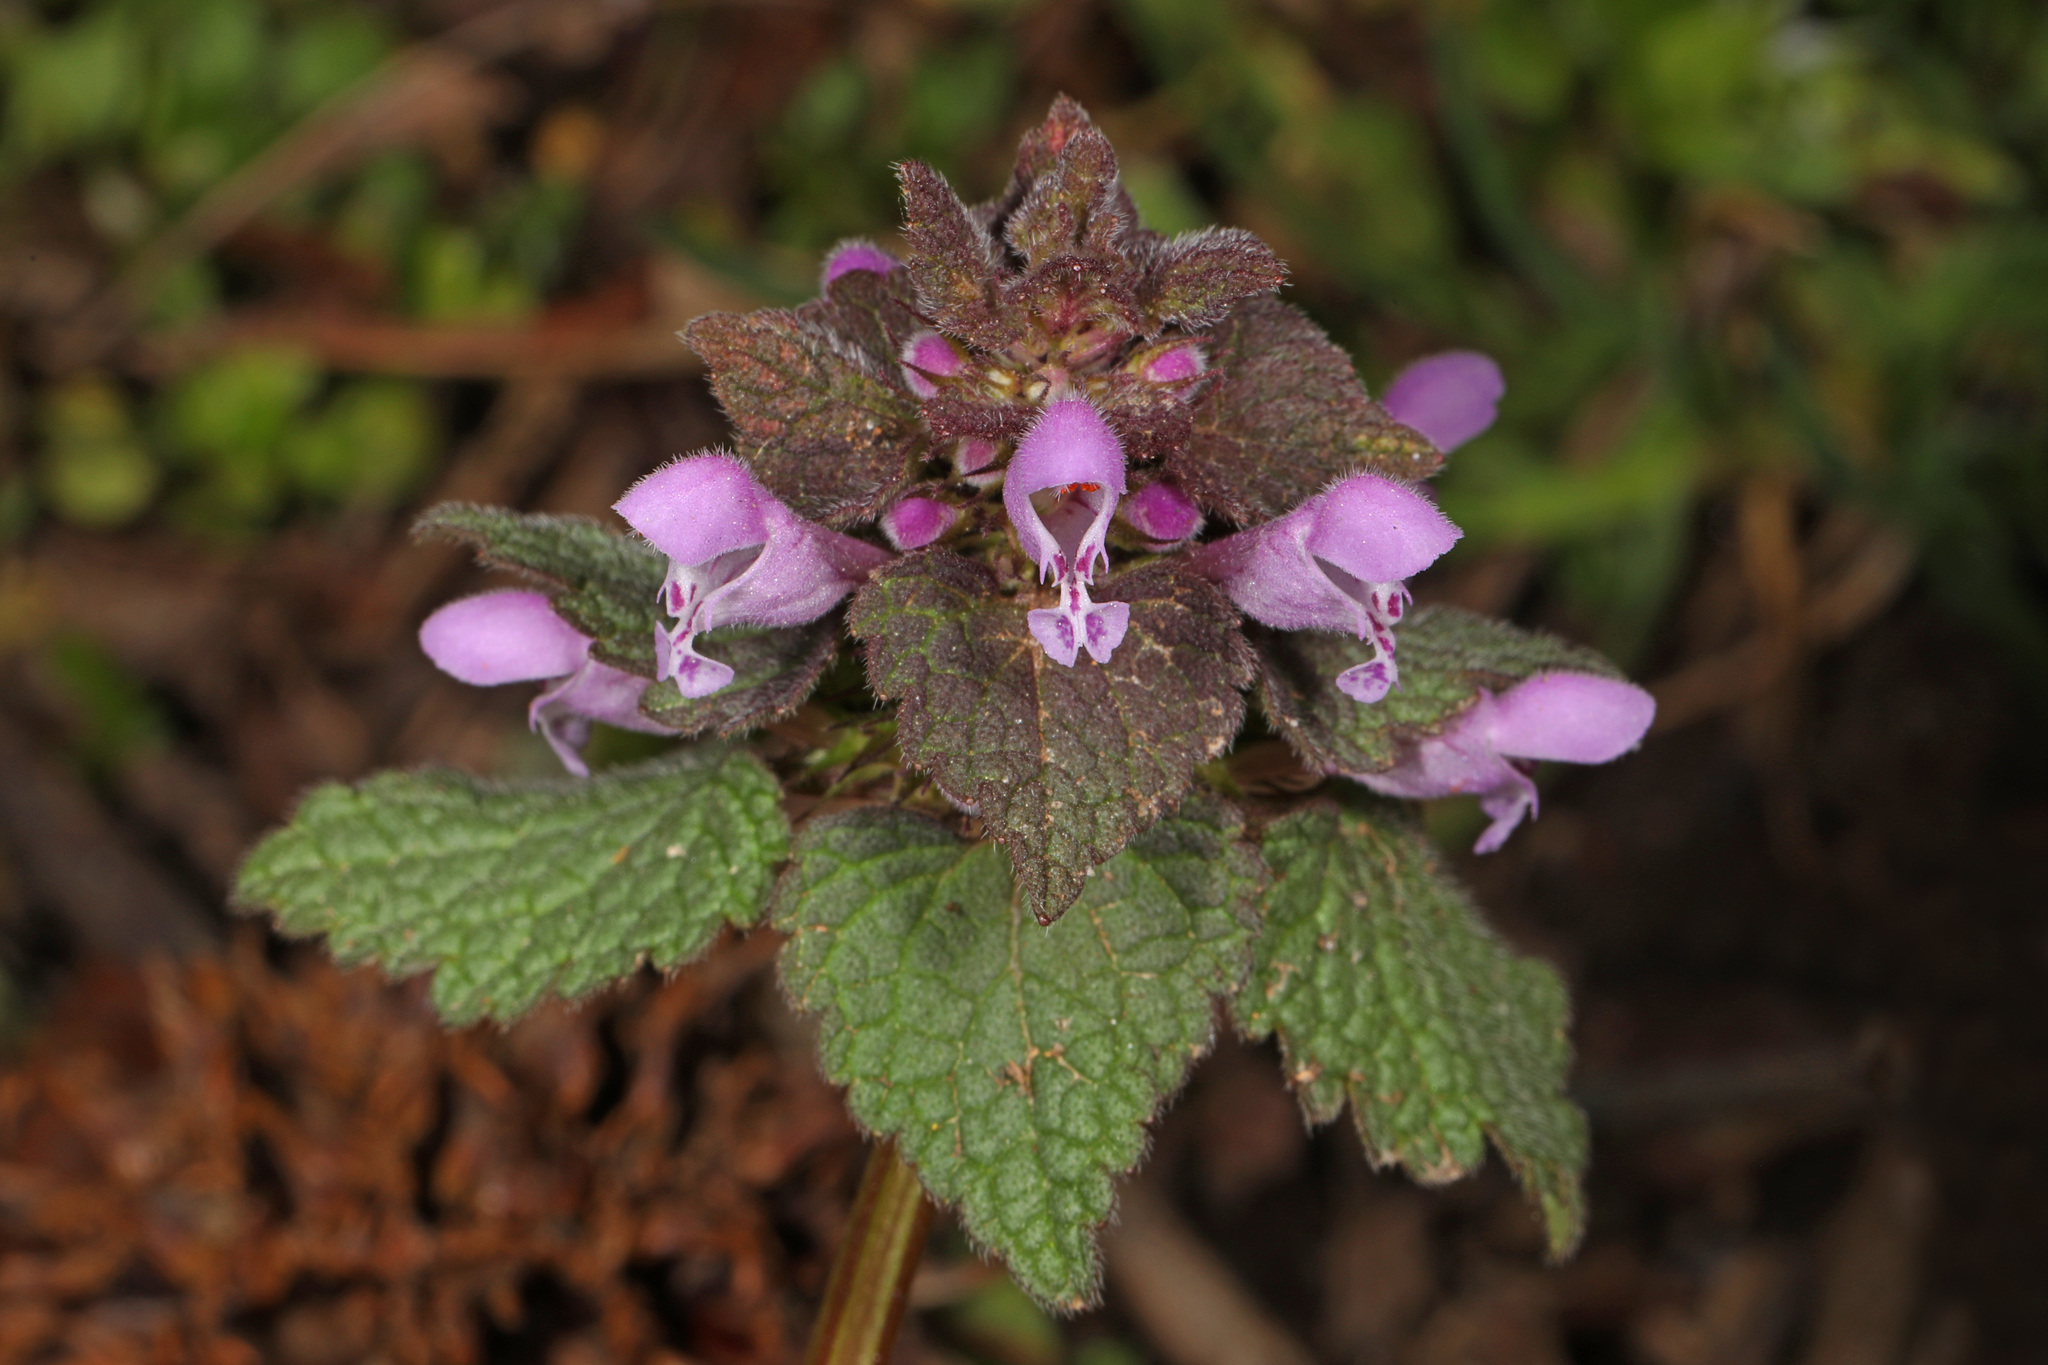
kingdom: Plantae
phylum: Tracheophyta
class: Magnoliopsida
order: Lamiales
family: Lamiaceae
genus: Lamium
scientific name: Lamium purpureum
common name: Red dead-nettle
